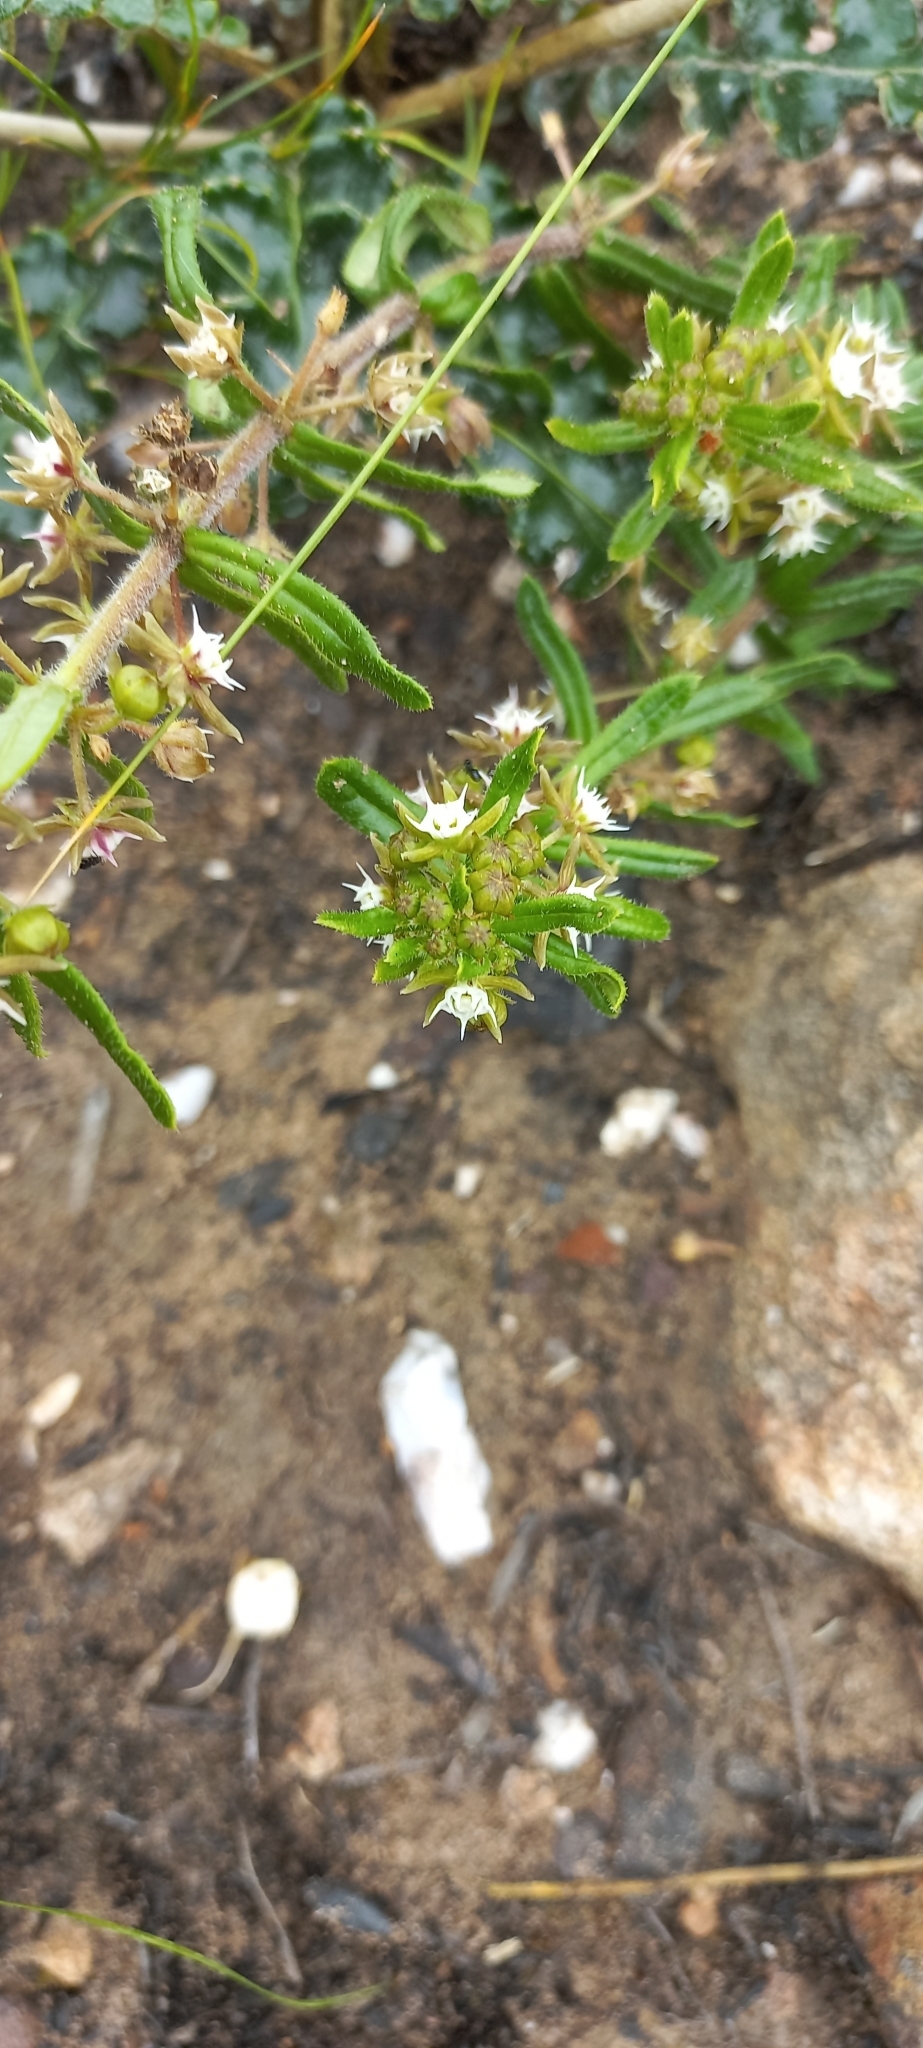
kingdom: Plantae
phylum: Tracheophyta
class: Magnoliopsida
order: Gentianales
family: Apocynaceae
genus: Aspidoglossum
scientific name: Aspidoglossum heterophyllum
